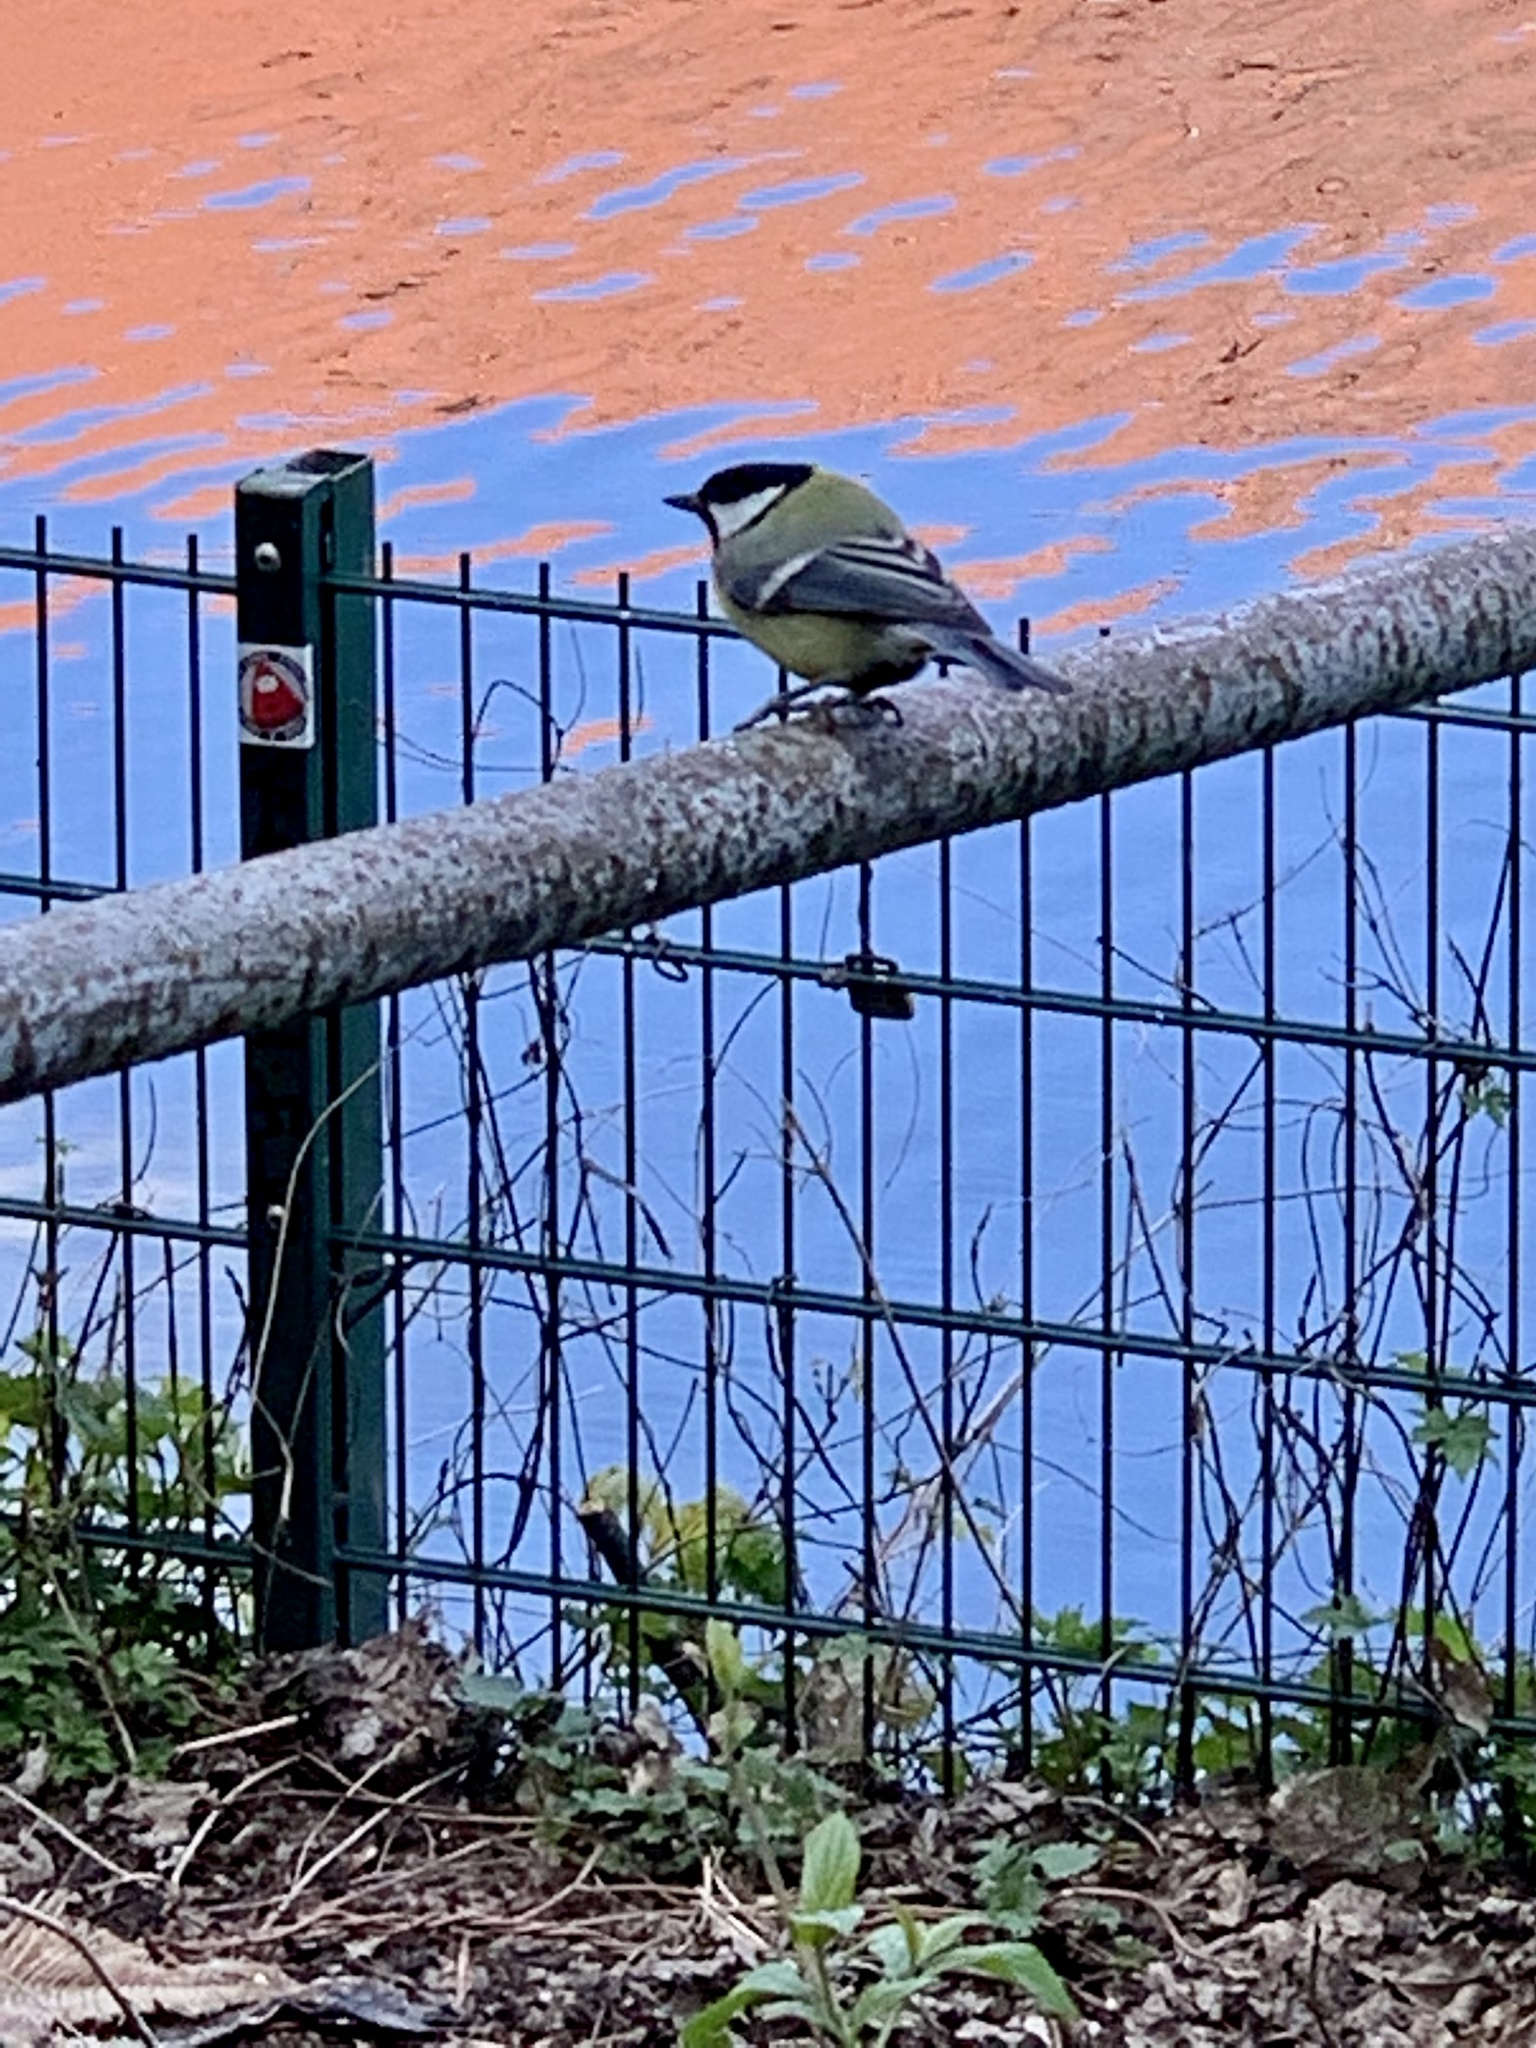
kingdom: Animalia
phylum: Chordata
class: Aves
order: Passeriformes
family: Paridae
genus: Parus
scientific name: Parus major
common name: Great tit
